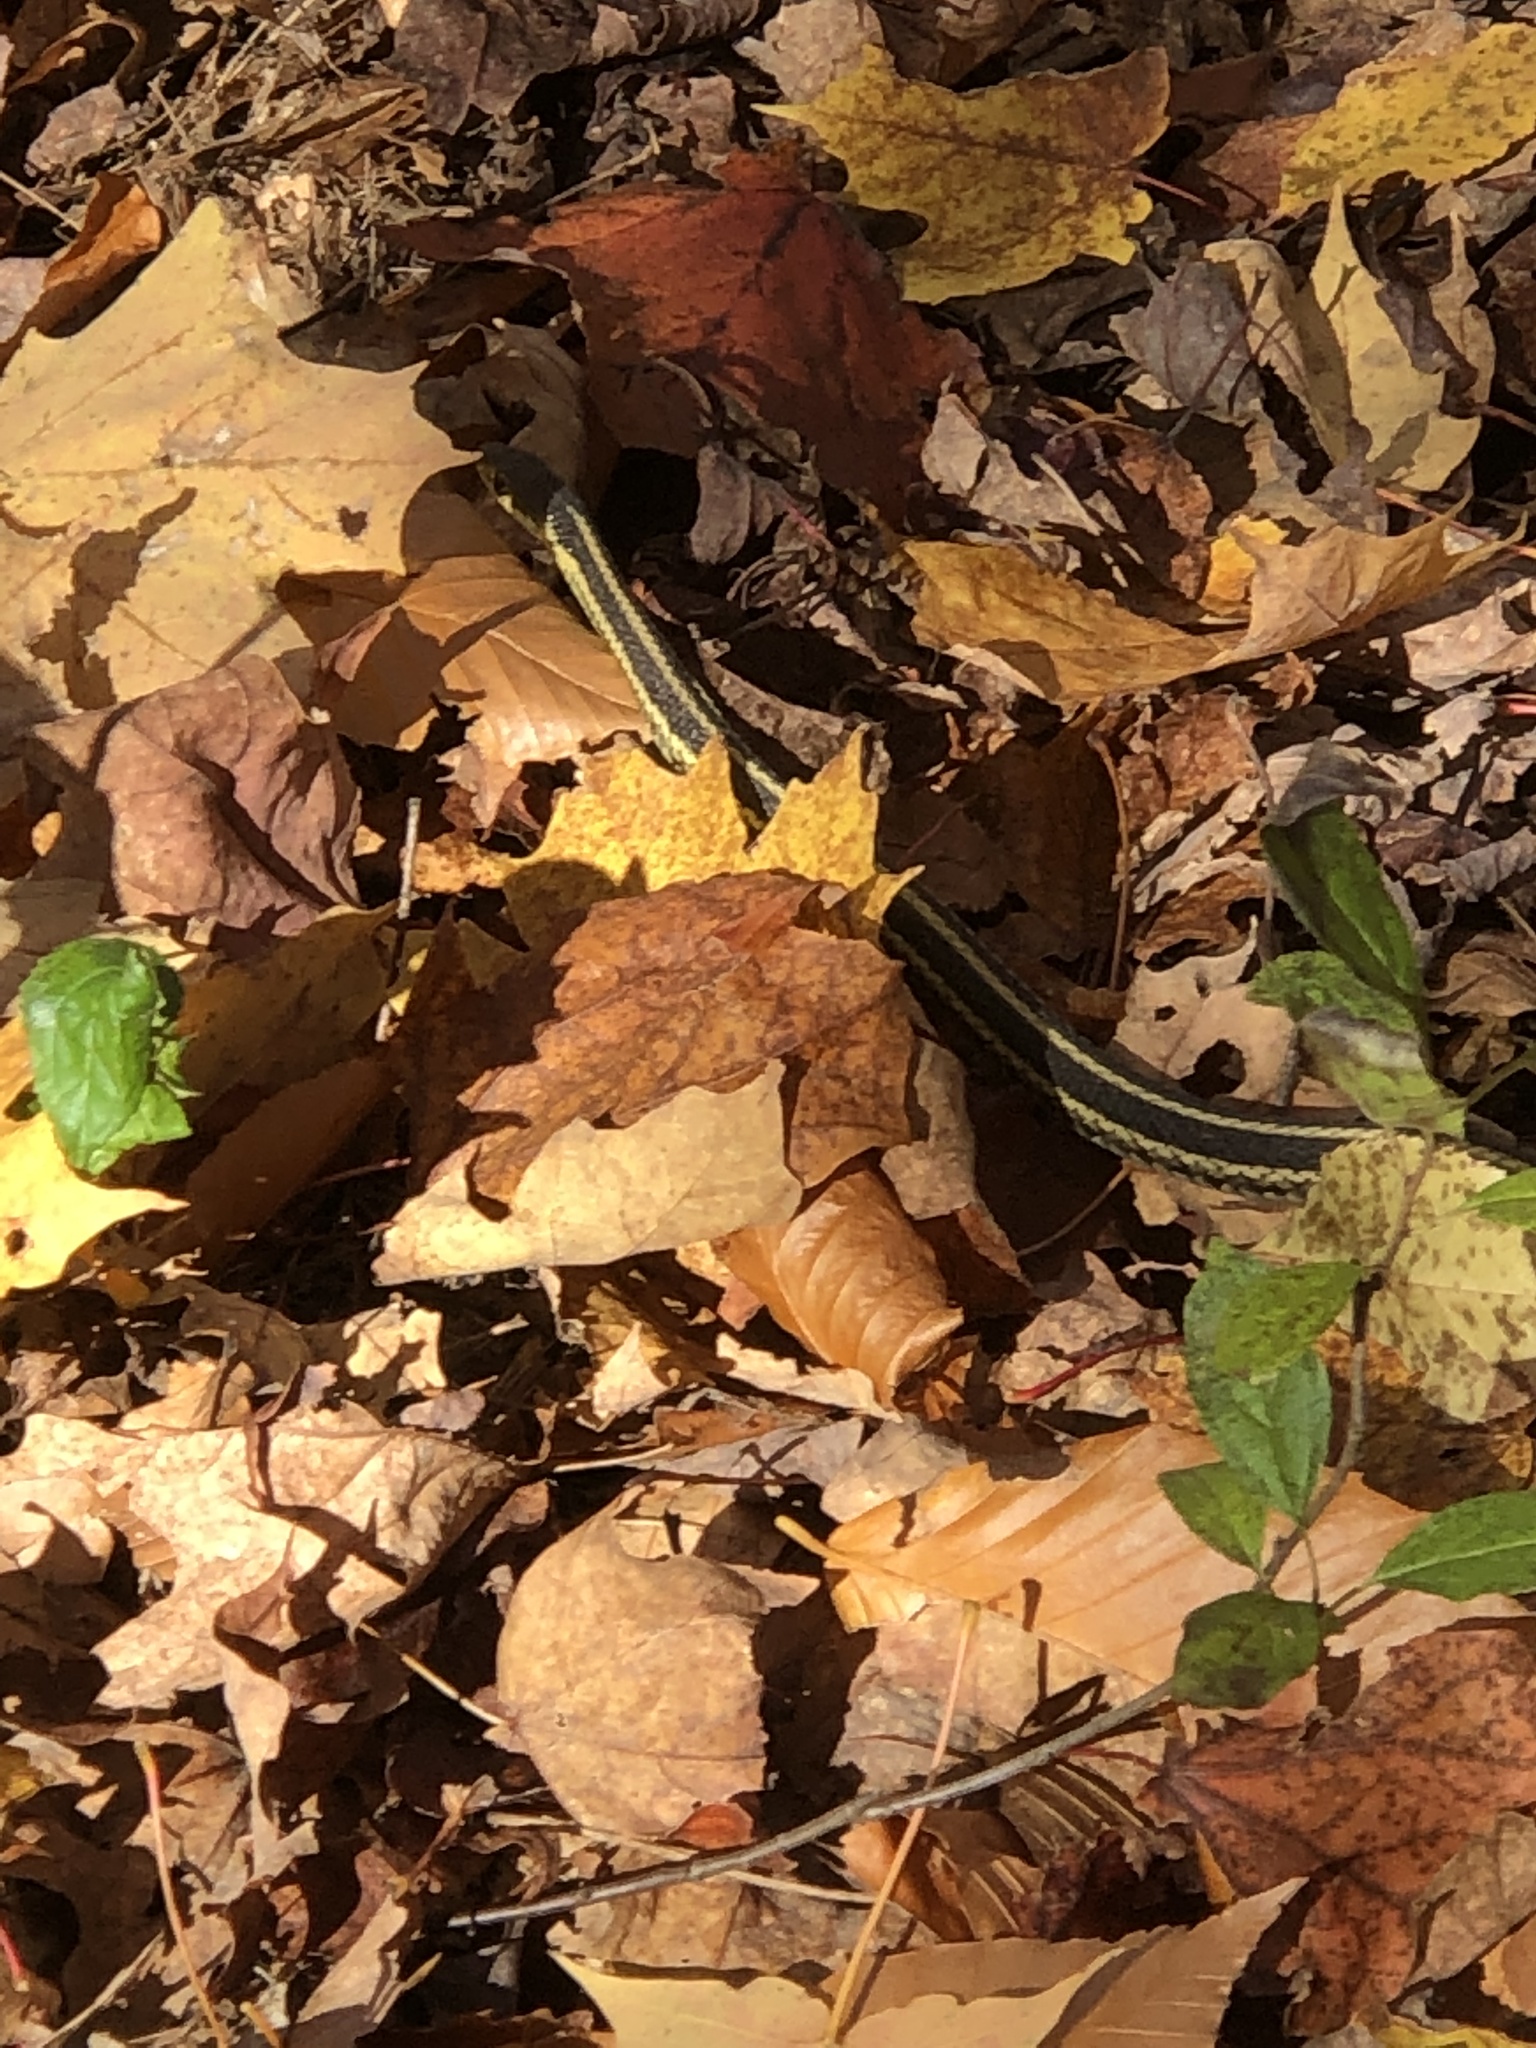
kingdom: Animalia
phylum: Chordata
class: Squamata
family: Colubridae
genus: Thamnophis
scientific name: Thamnophis sirtalis
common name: Common garter snake
